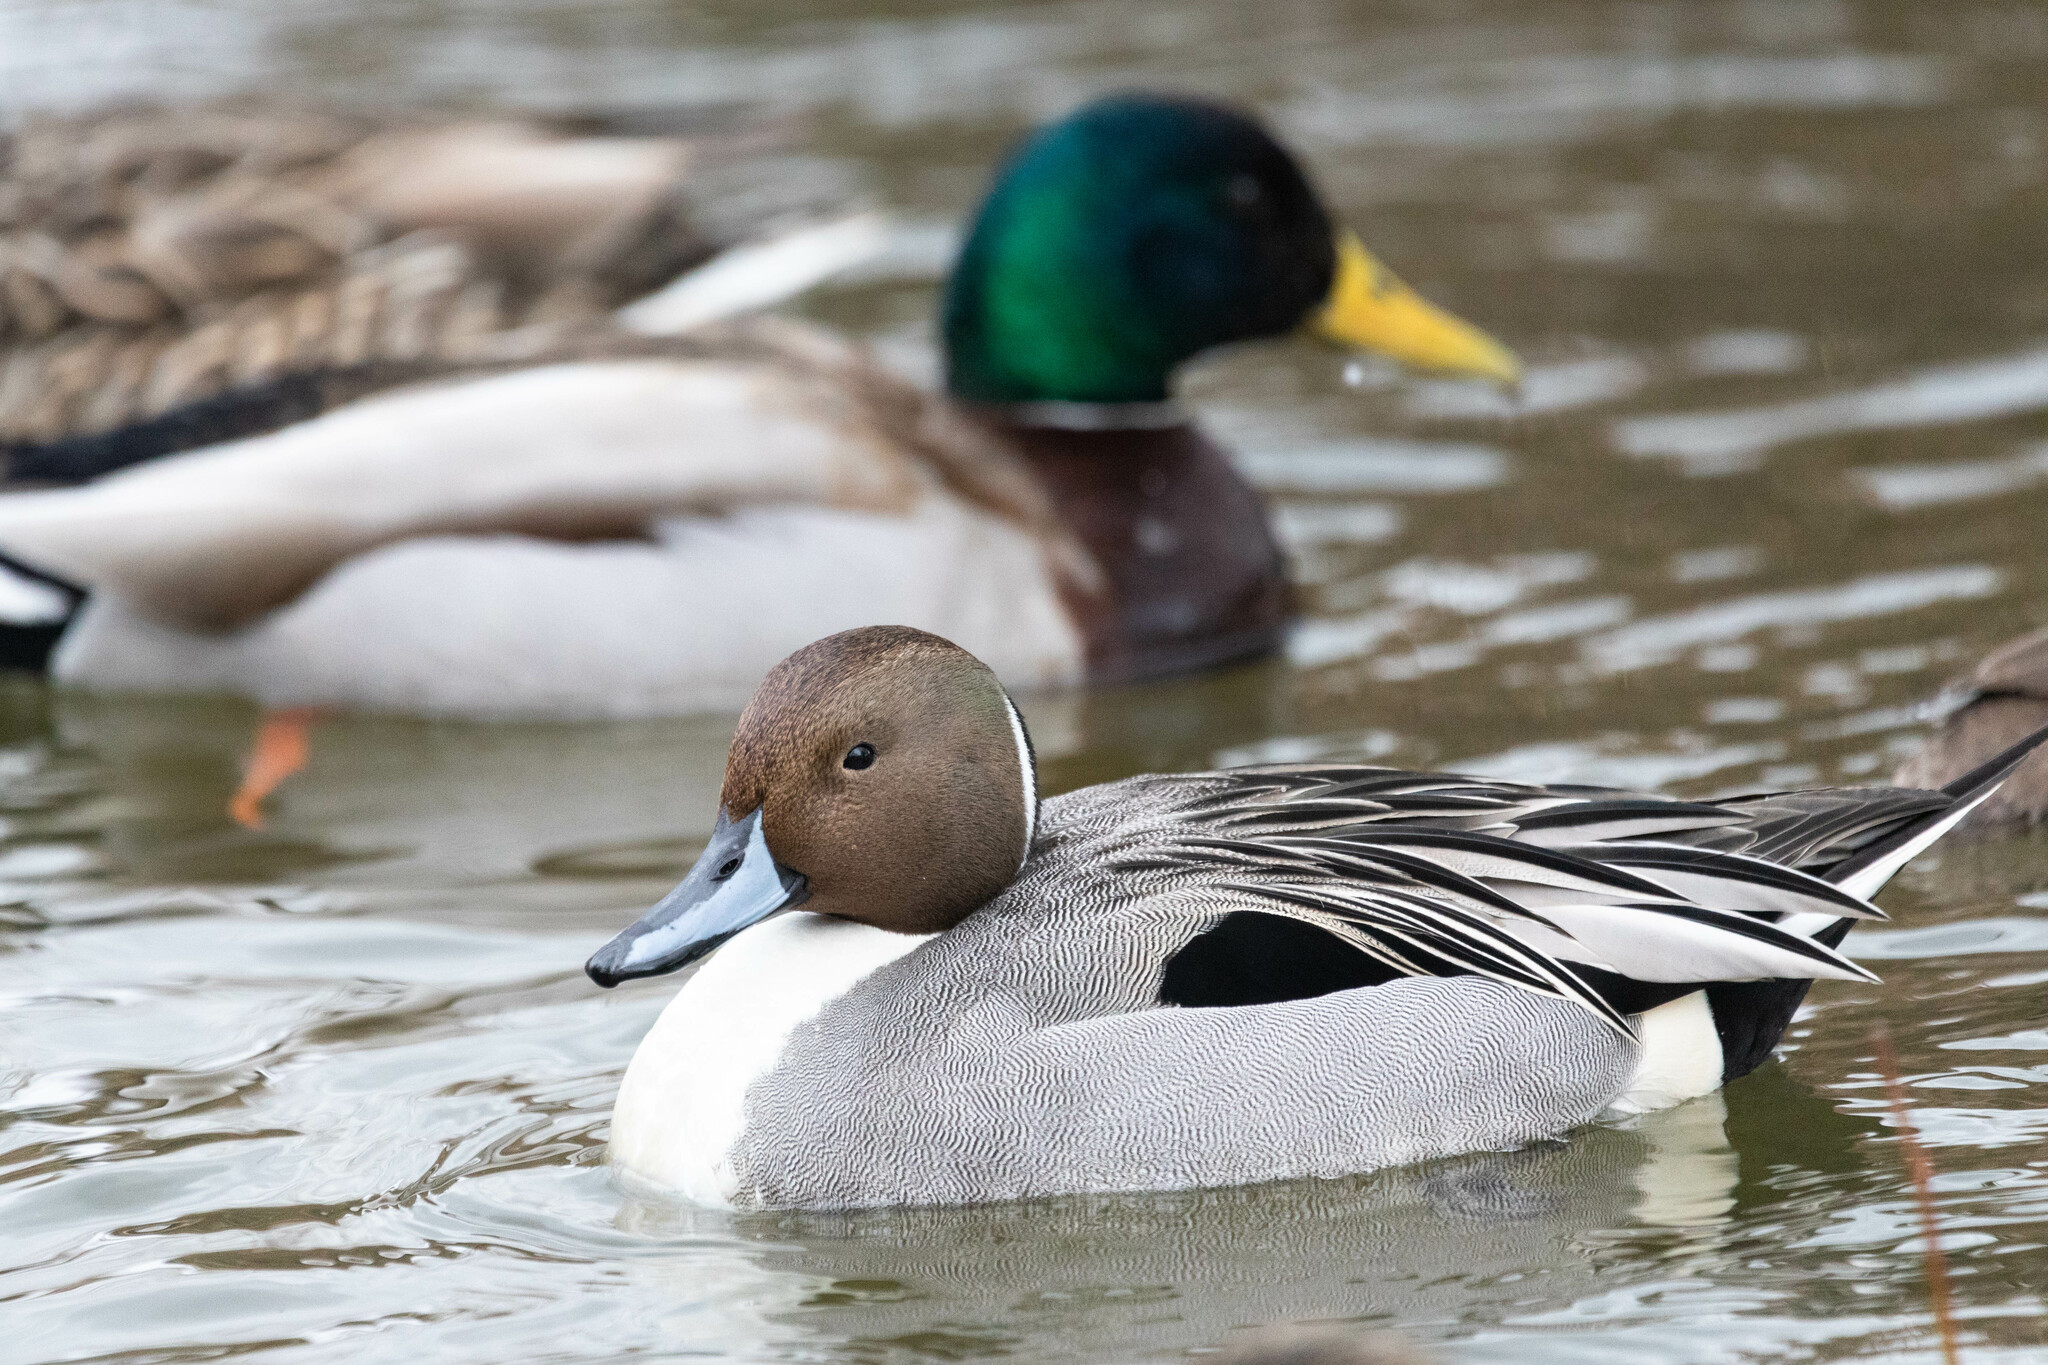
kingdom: Animalia
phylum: Chordata
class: Aves
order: Anseriformes
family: Anatidae
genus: Anas
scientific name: Anas acuta
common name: Northern pintail
